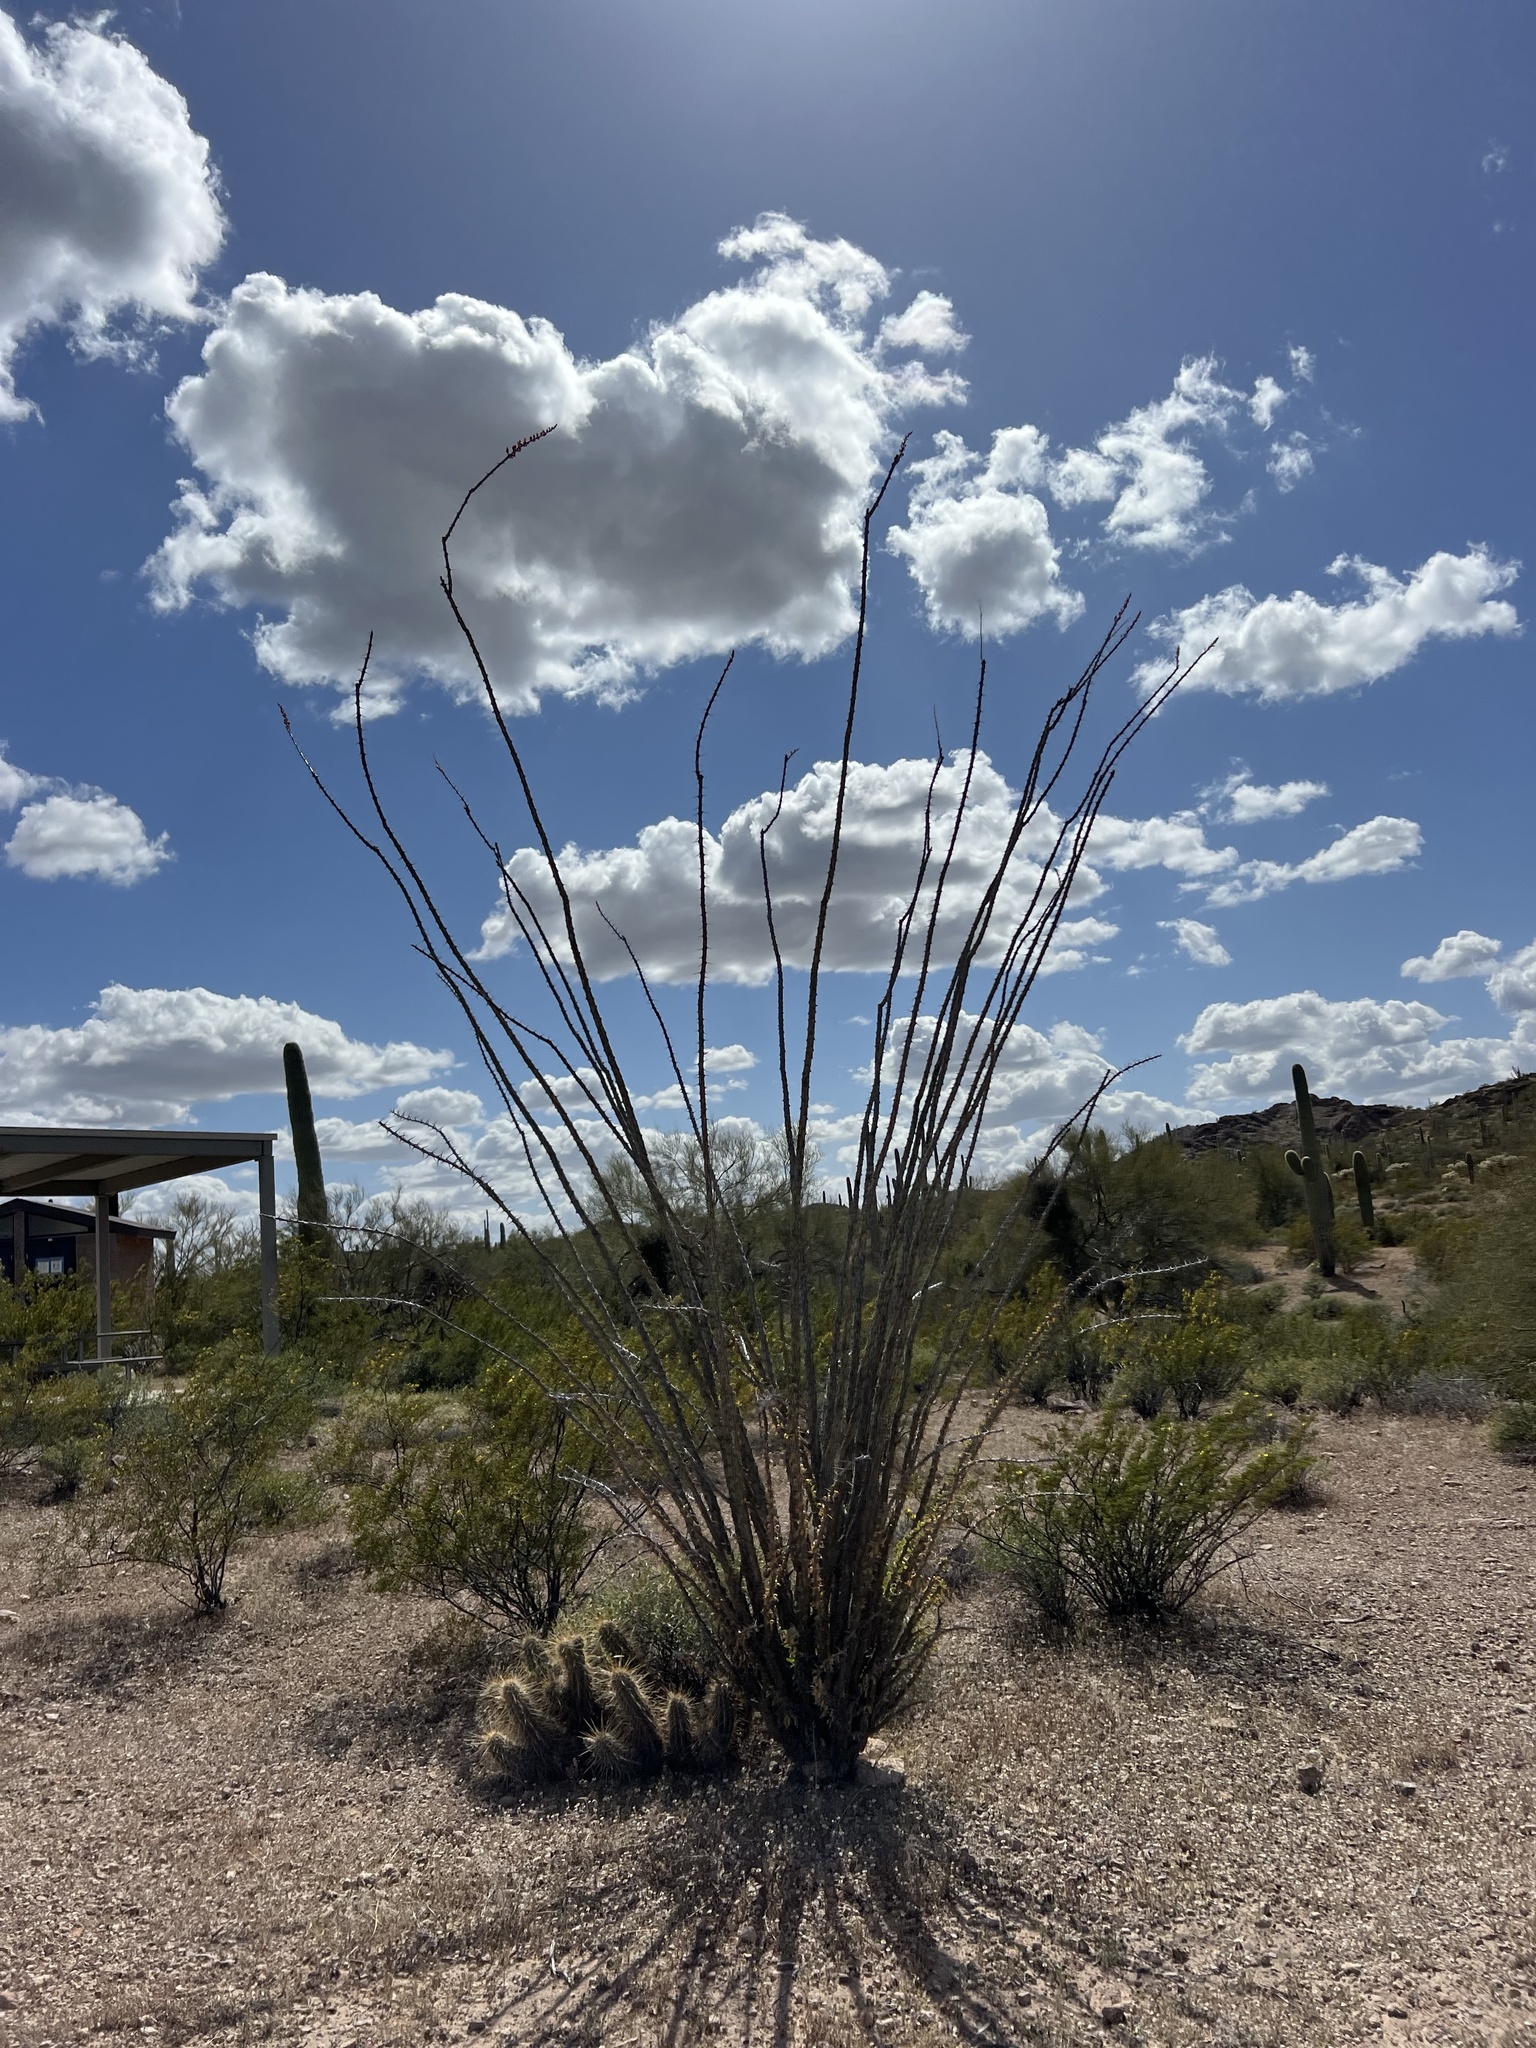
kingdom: Plantae
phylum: Tracheophyta
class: Magnoliopsida
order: Ericales
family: Fouquieriaceae
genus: Fouquieria
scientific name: Fouquieria splendens
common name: Vine-cactus
